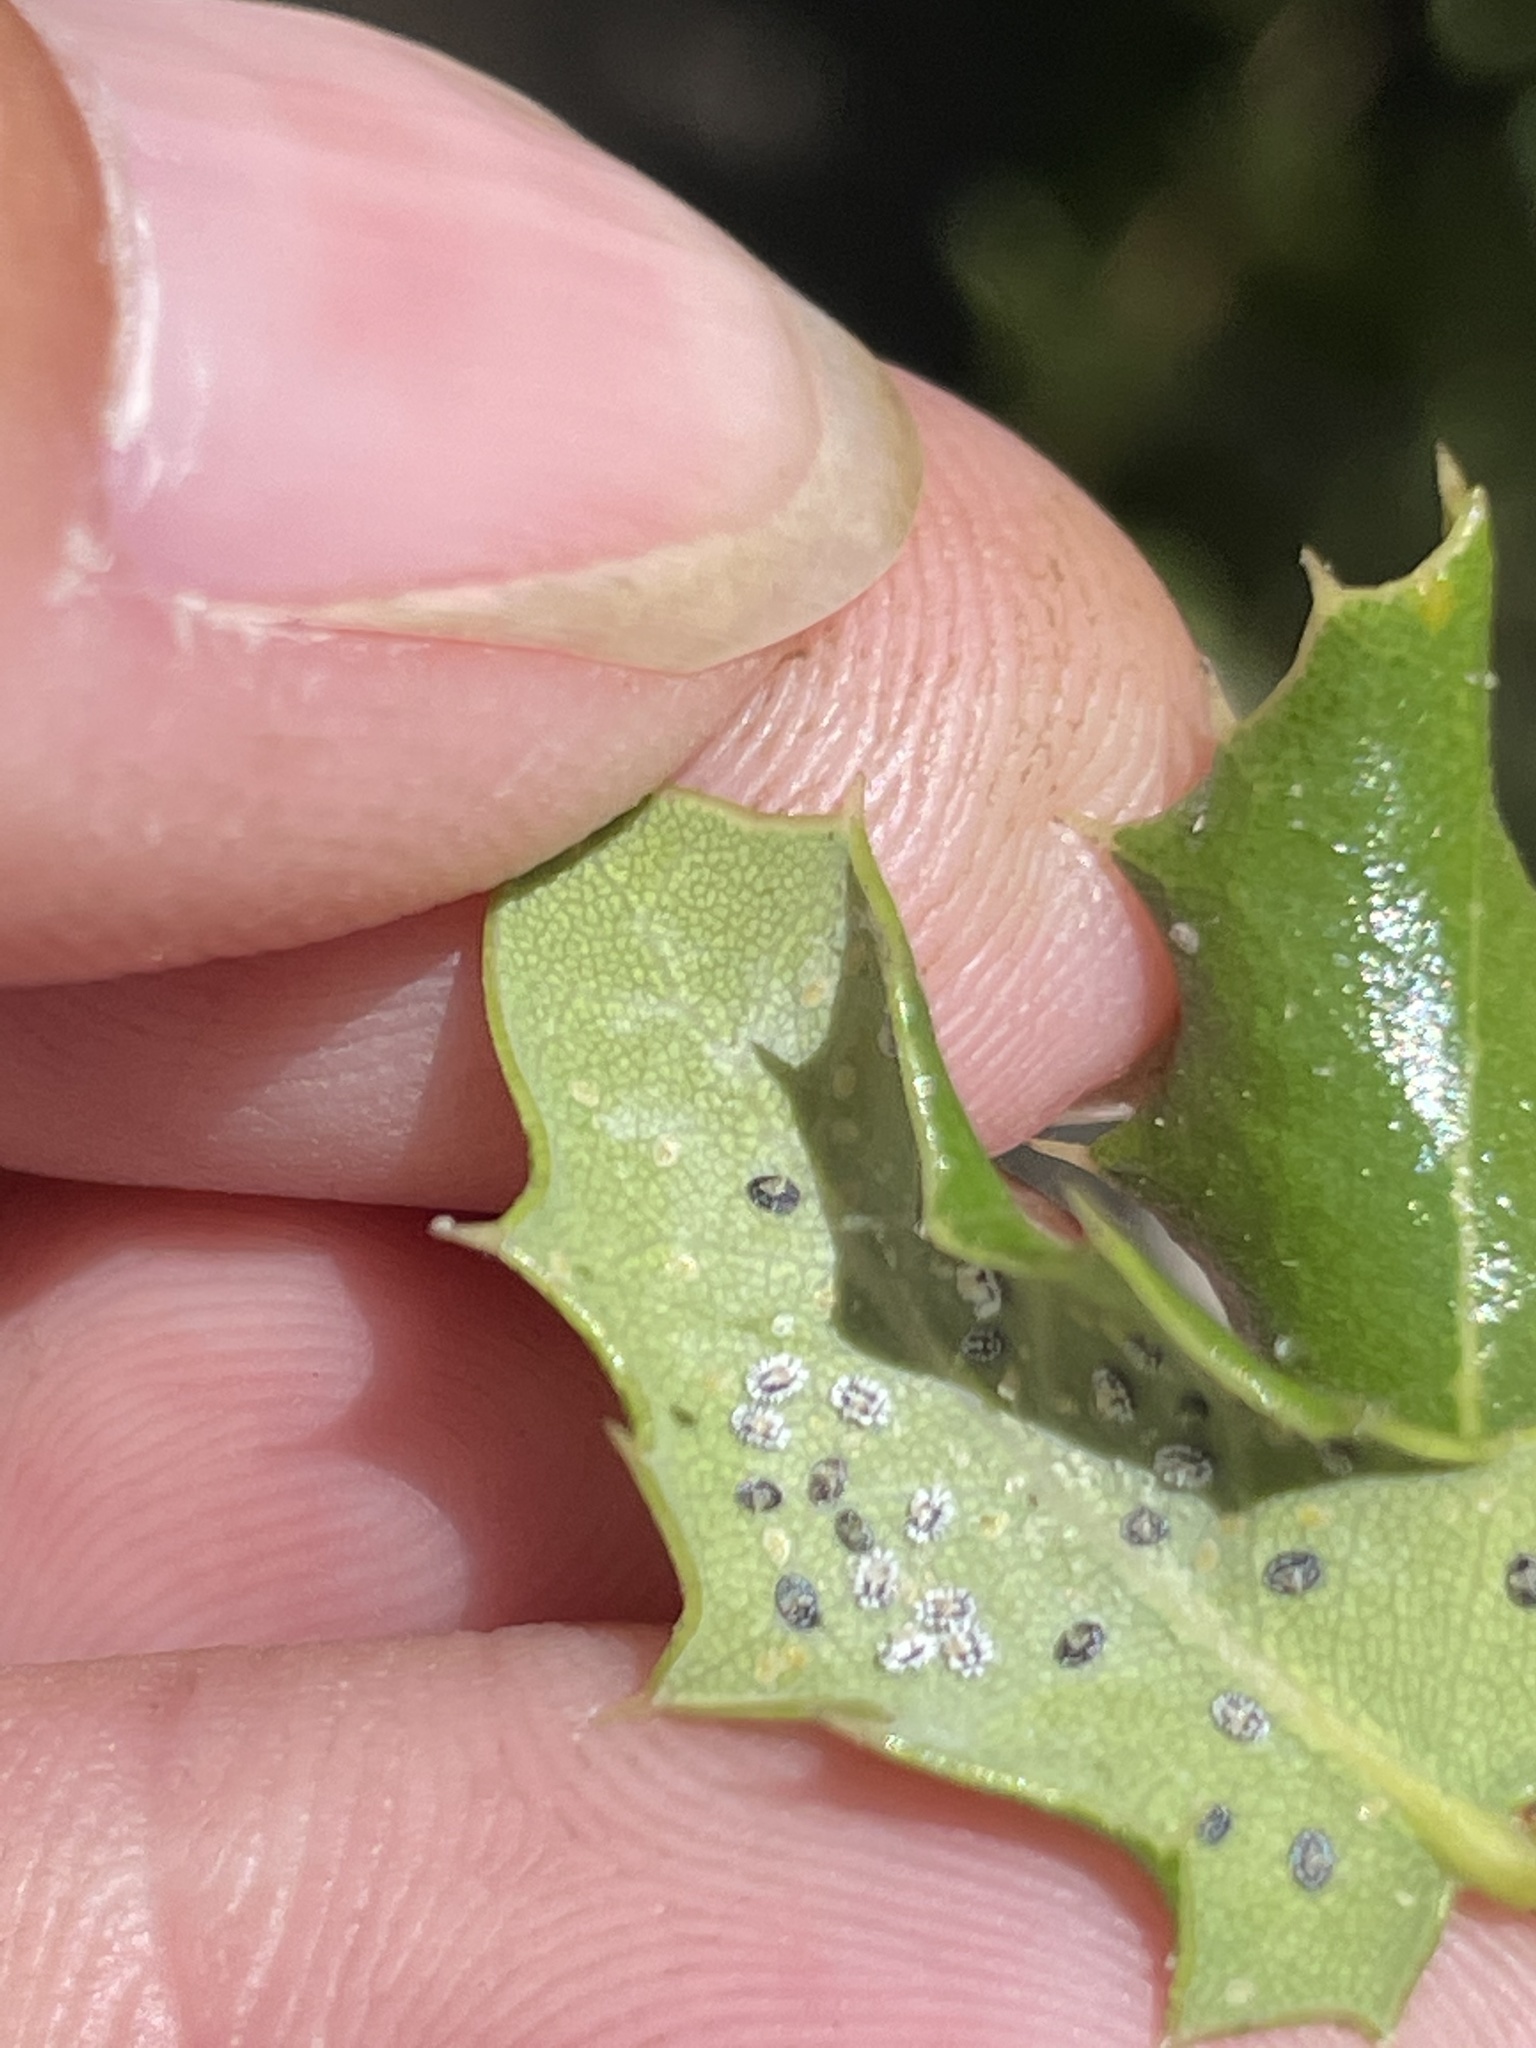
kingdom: Plantae
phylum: Tracheophyta
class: Magnoliopsida
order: Fagales
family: Fagaceae
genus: Quercus
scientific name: Quercus cedrosensis
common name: Cedros island oak
